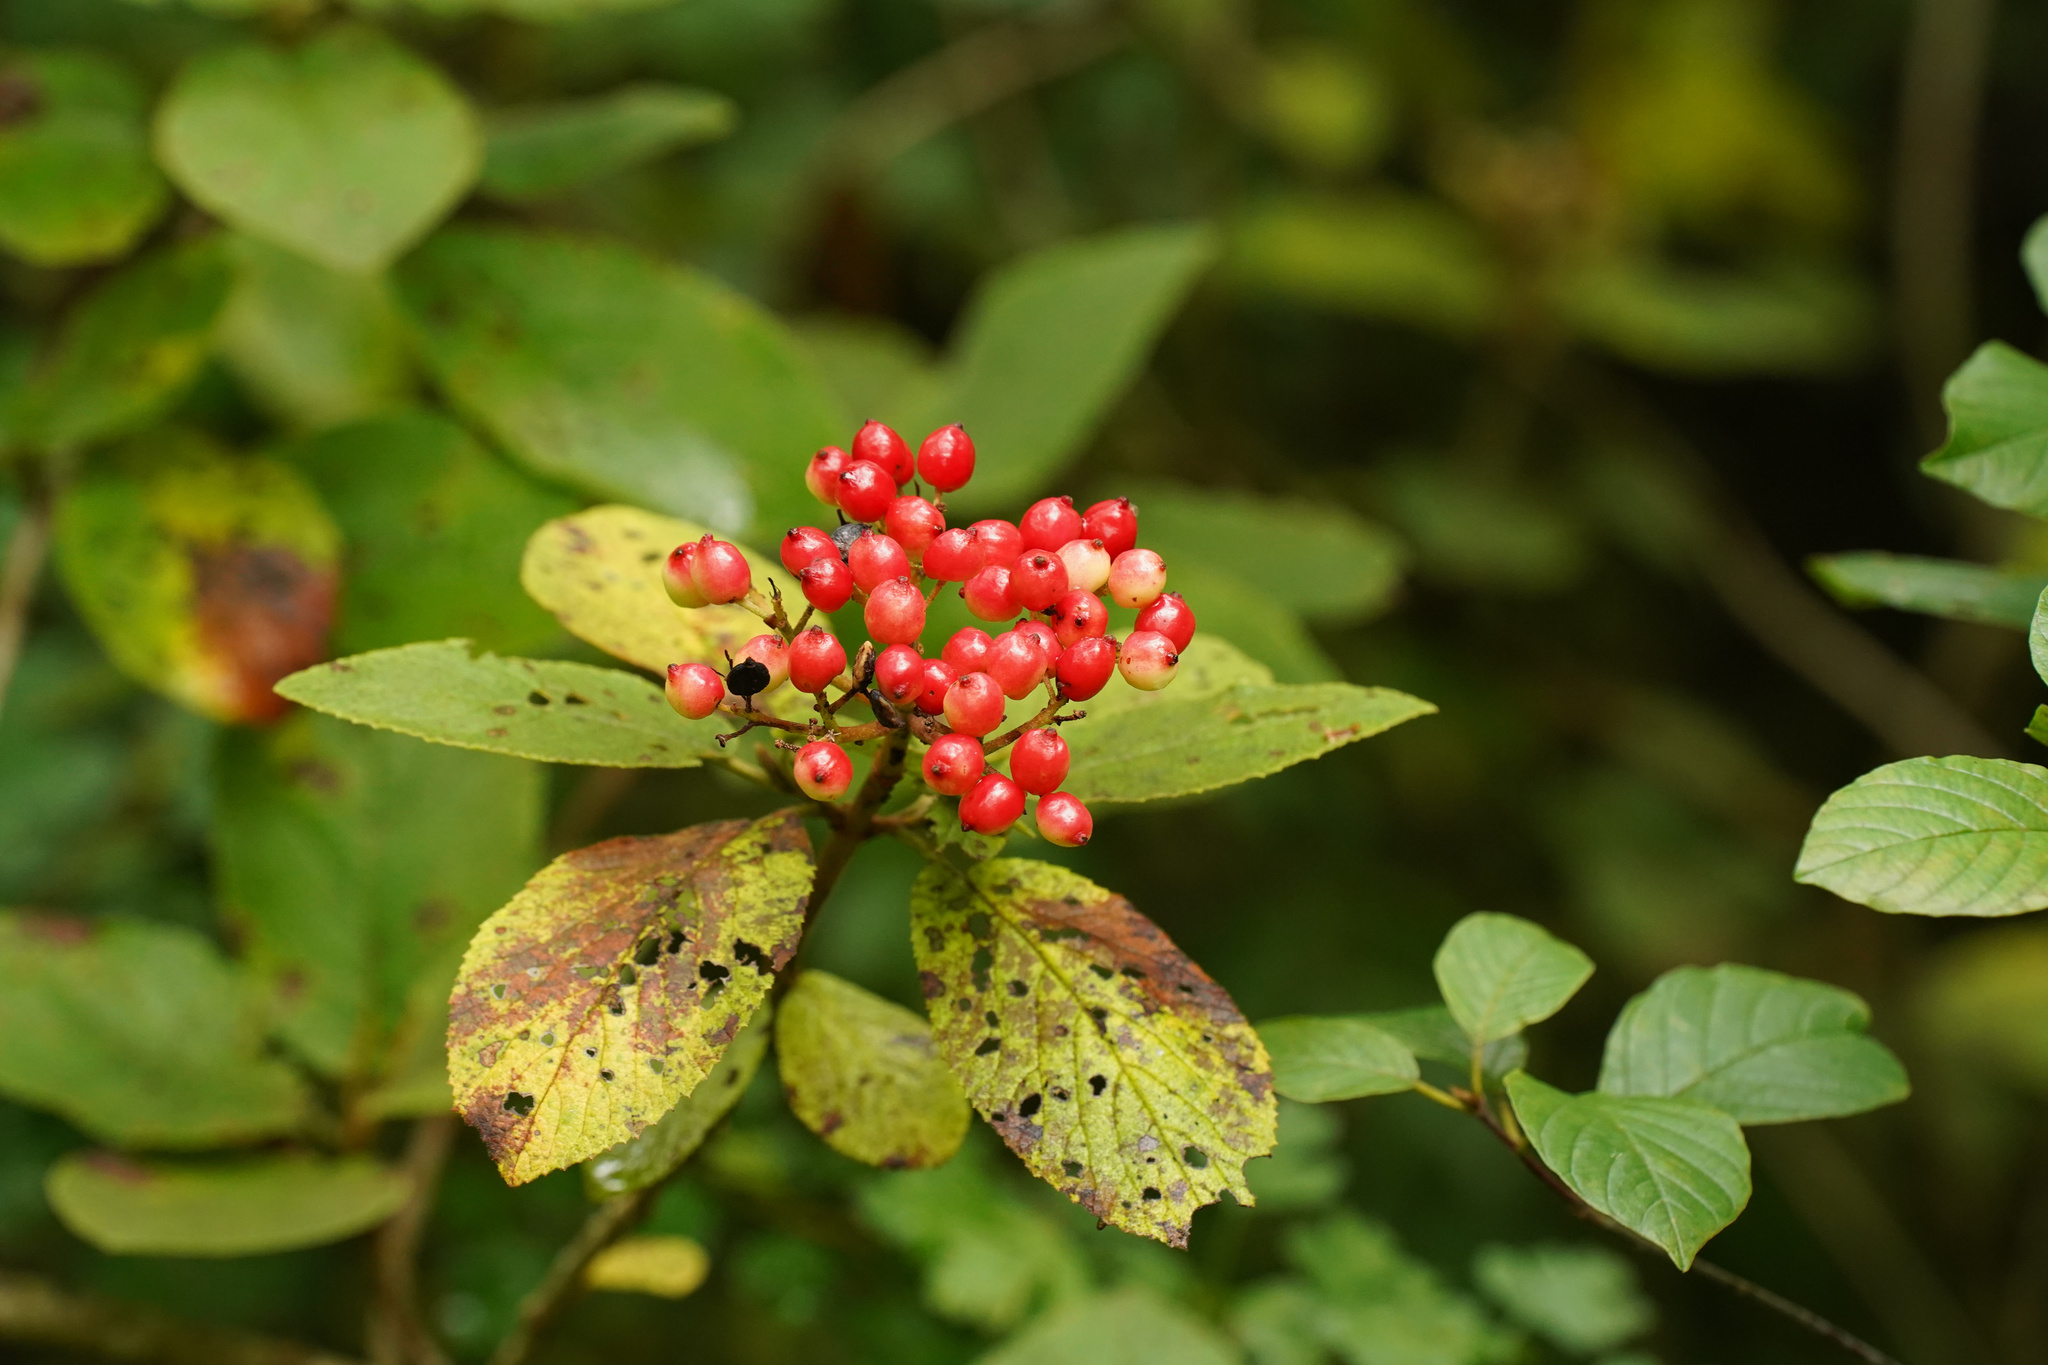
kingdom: Plantae
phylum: Tracheophyta
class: Magnoliopsida
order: Dipsacales
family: Viburnaceae
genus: Viburnum
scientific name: Viburnum lantana
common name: Wayfaring tree
